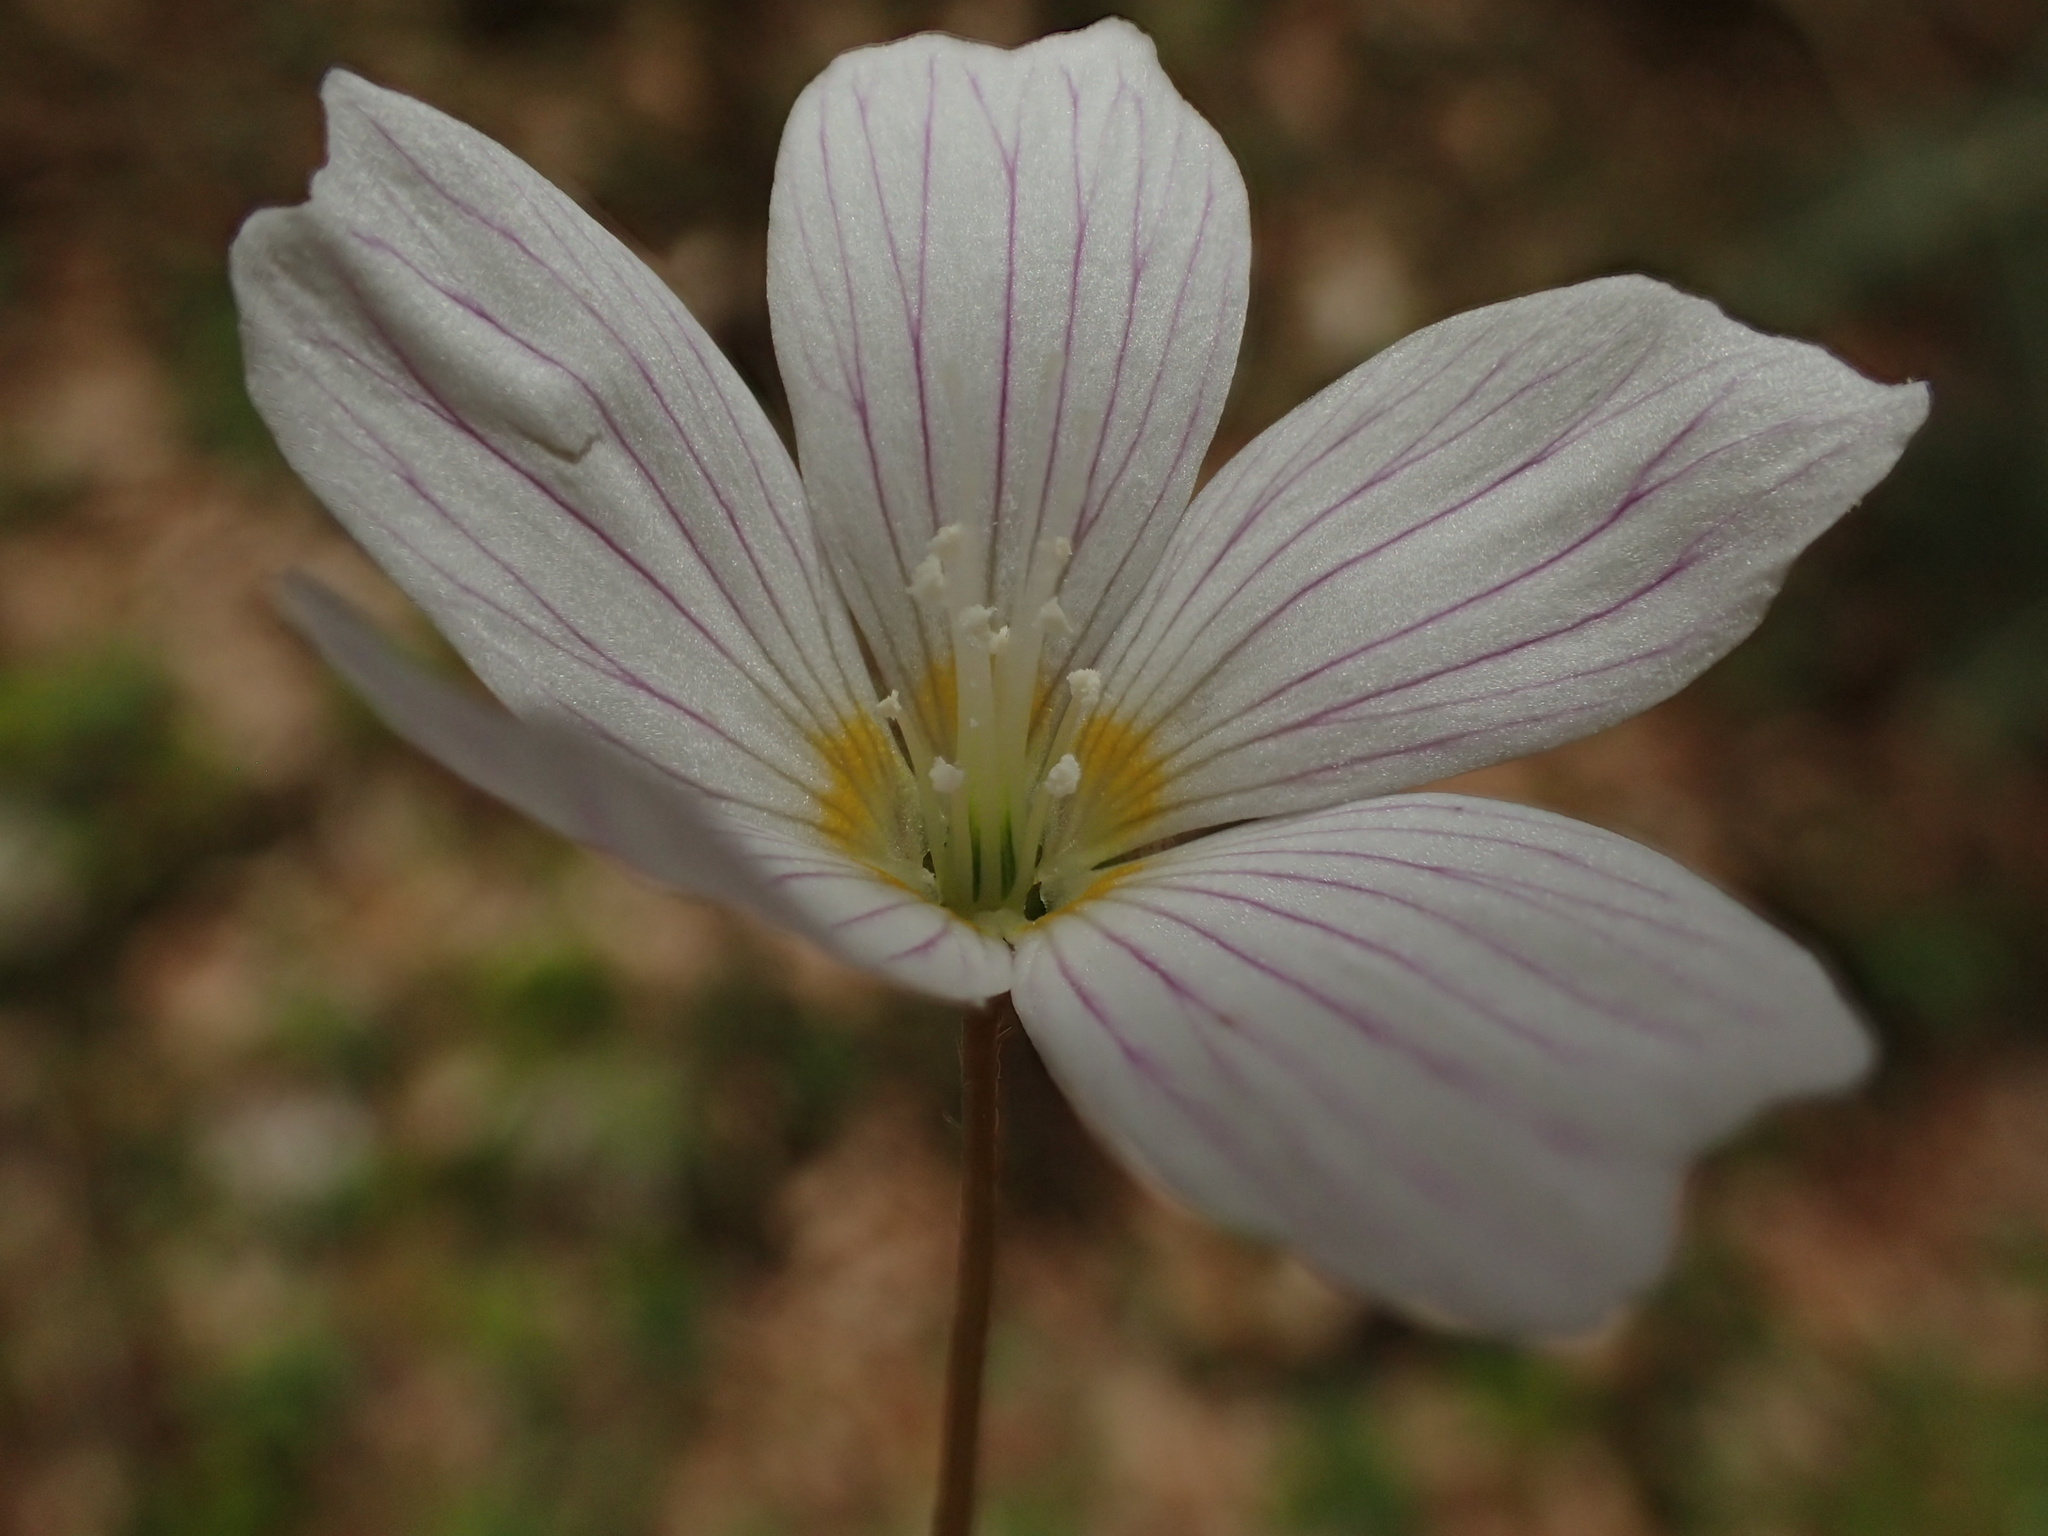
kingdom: Plantae
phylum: Tracheophyta
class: Magnoliopsida
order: Oxalidales
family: Oxalidaceae
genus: Oxalis
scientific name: Oxalis acetosella
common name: Wood-sorrel
